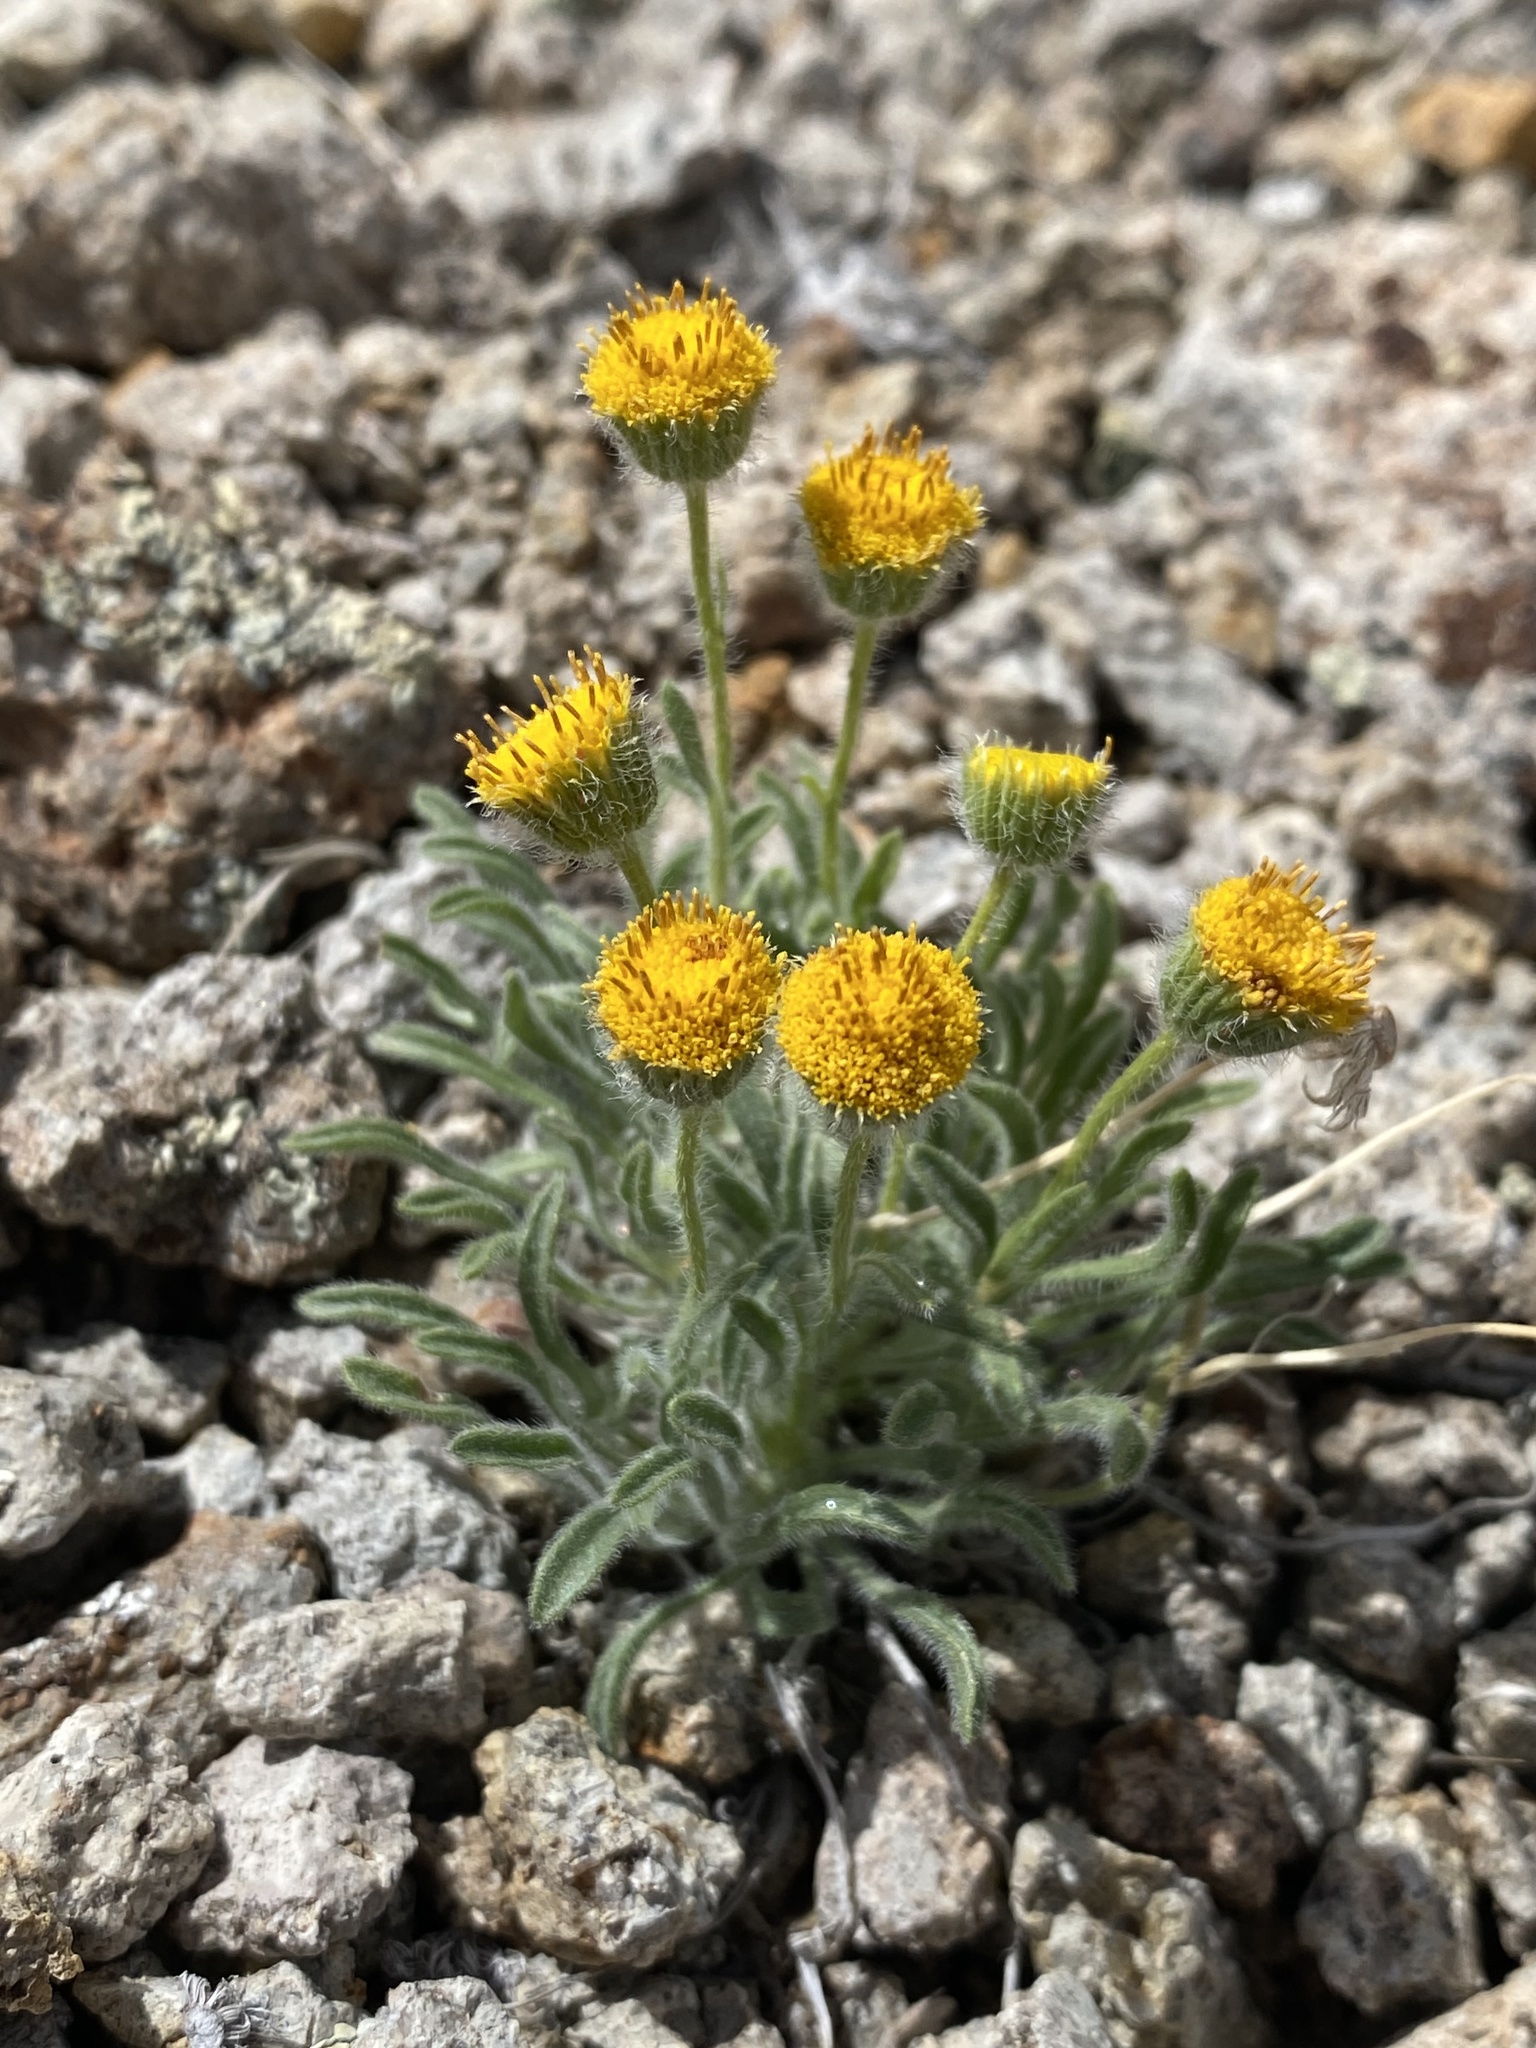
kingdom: Plantae
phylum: Tracheophyta
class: Magnoliopsida
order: Asterales
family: Asteraceae
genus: Erigeron
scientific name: Erigeron aphanactis
